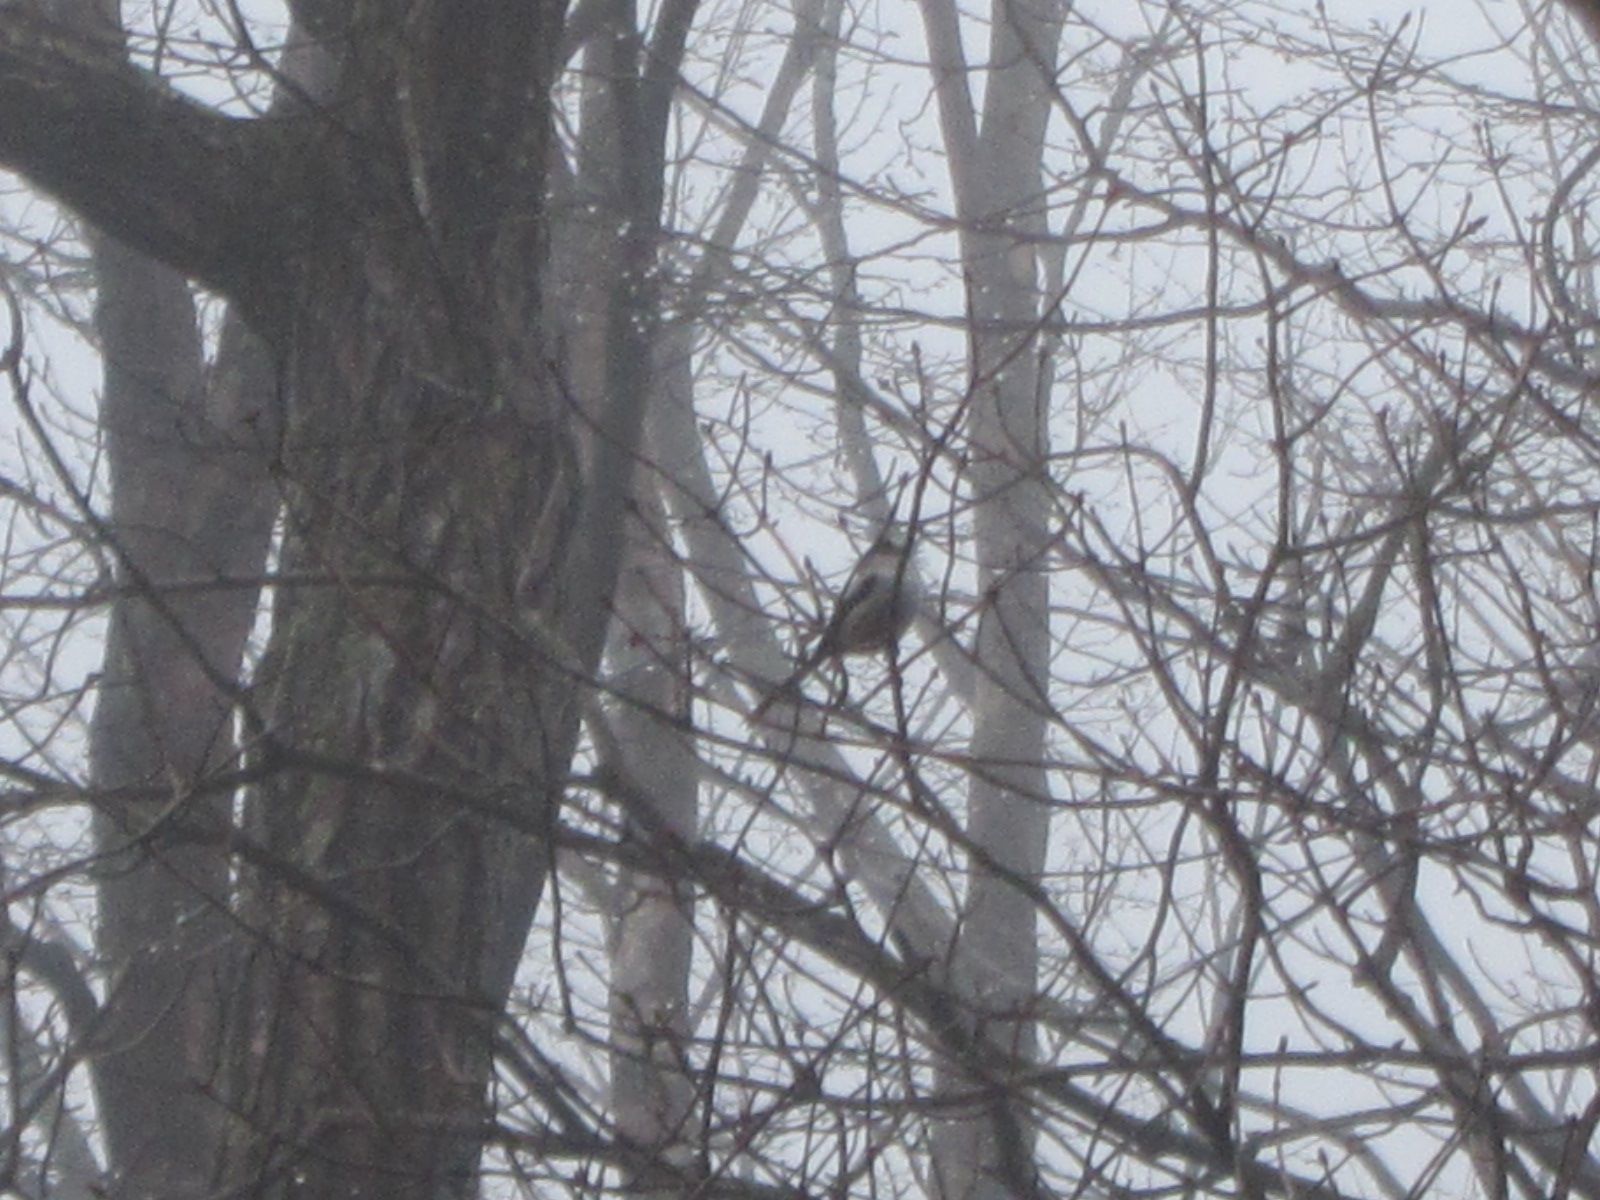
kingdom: Animalia
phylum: Chordata
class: Aves
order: Passeriformes
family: Aegithalidae
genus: Aegithalos
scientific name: Aegithalos caudatus
